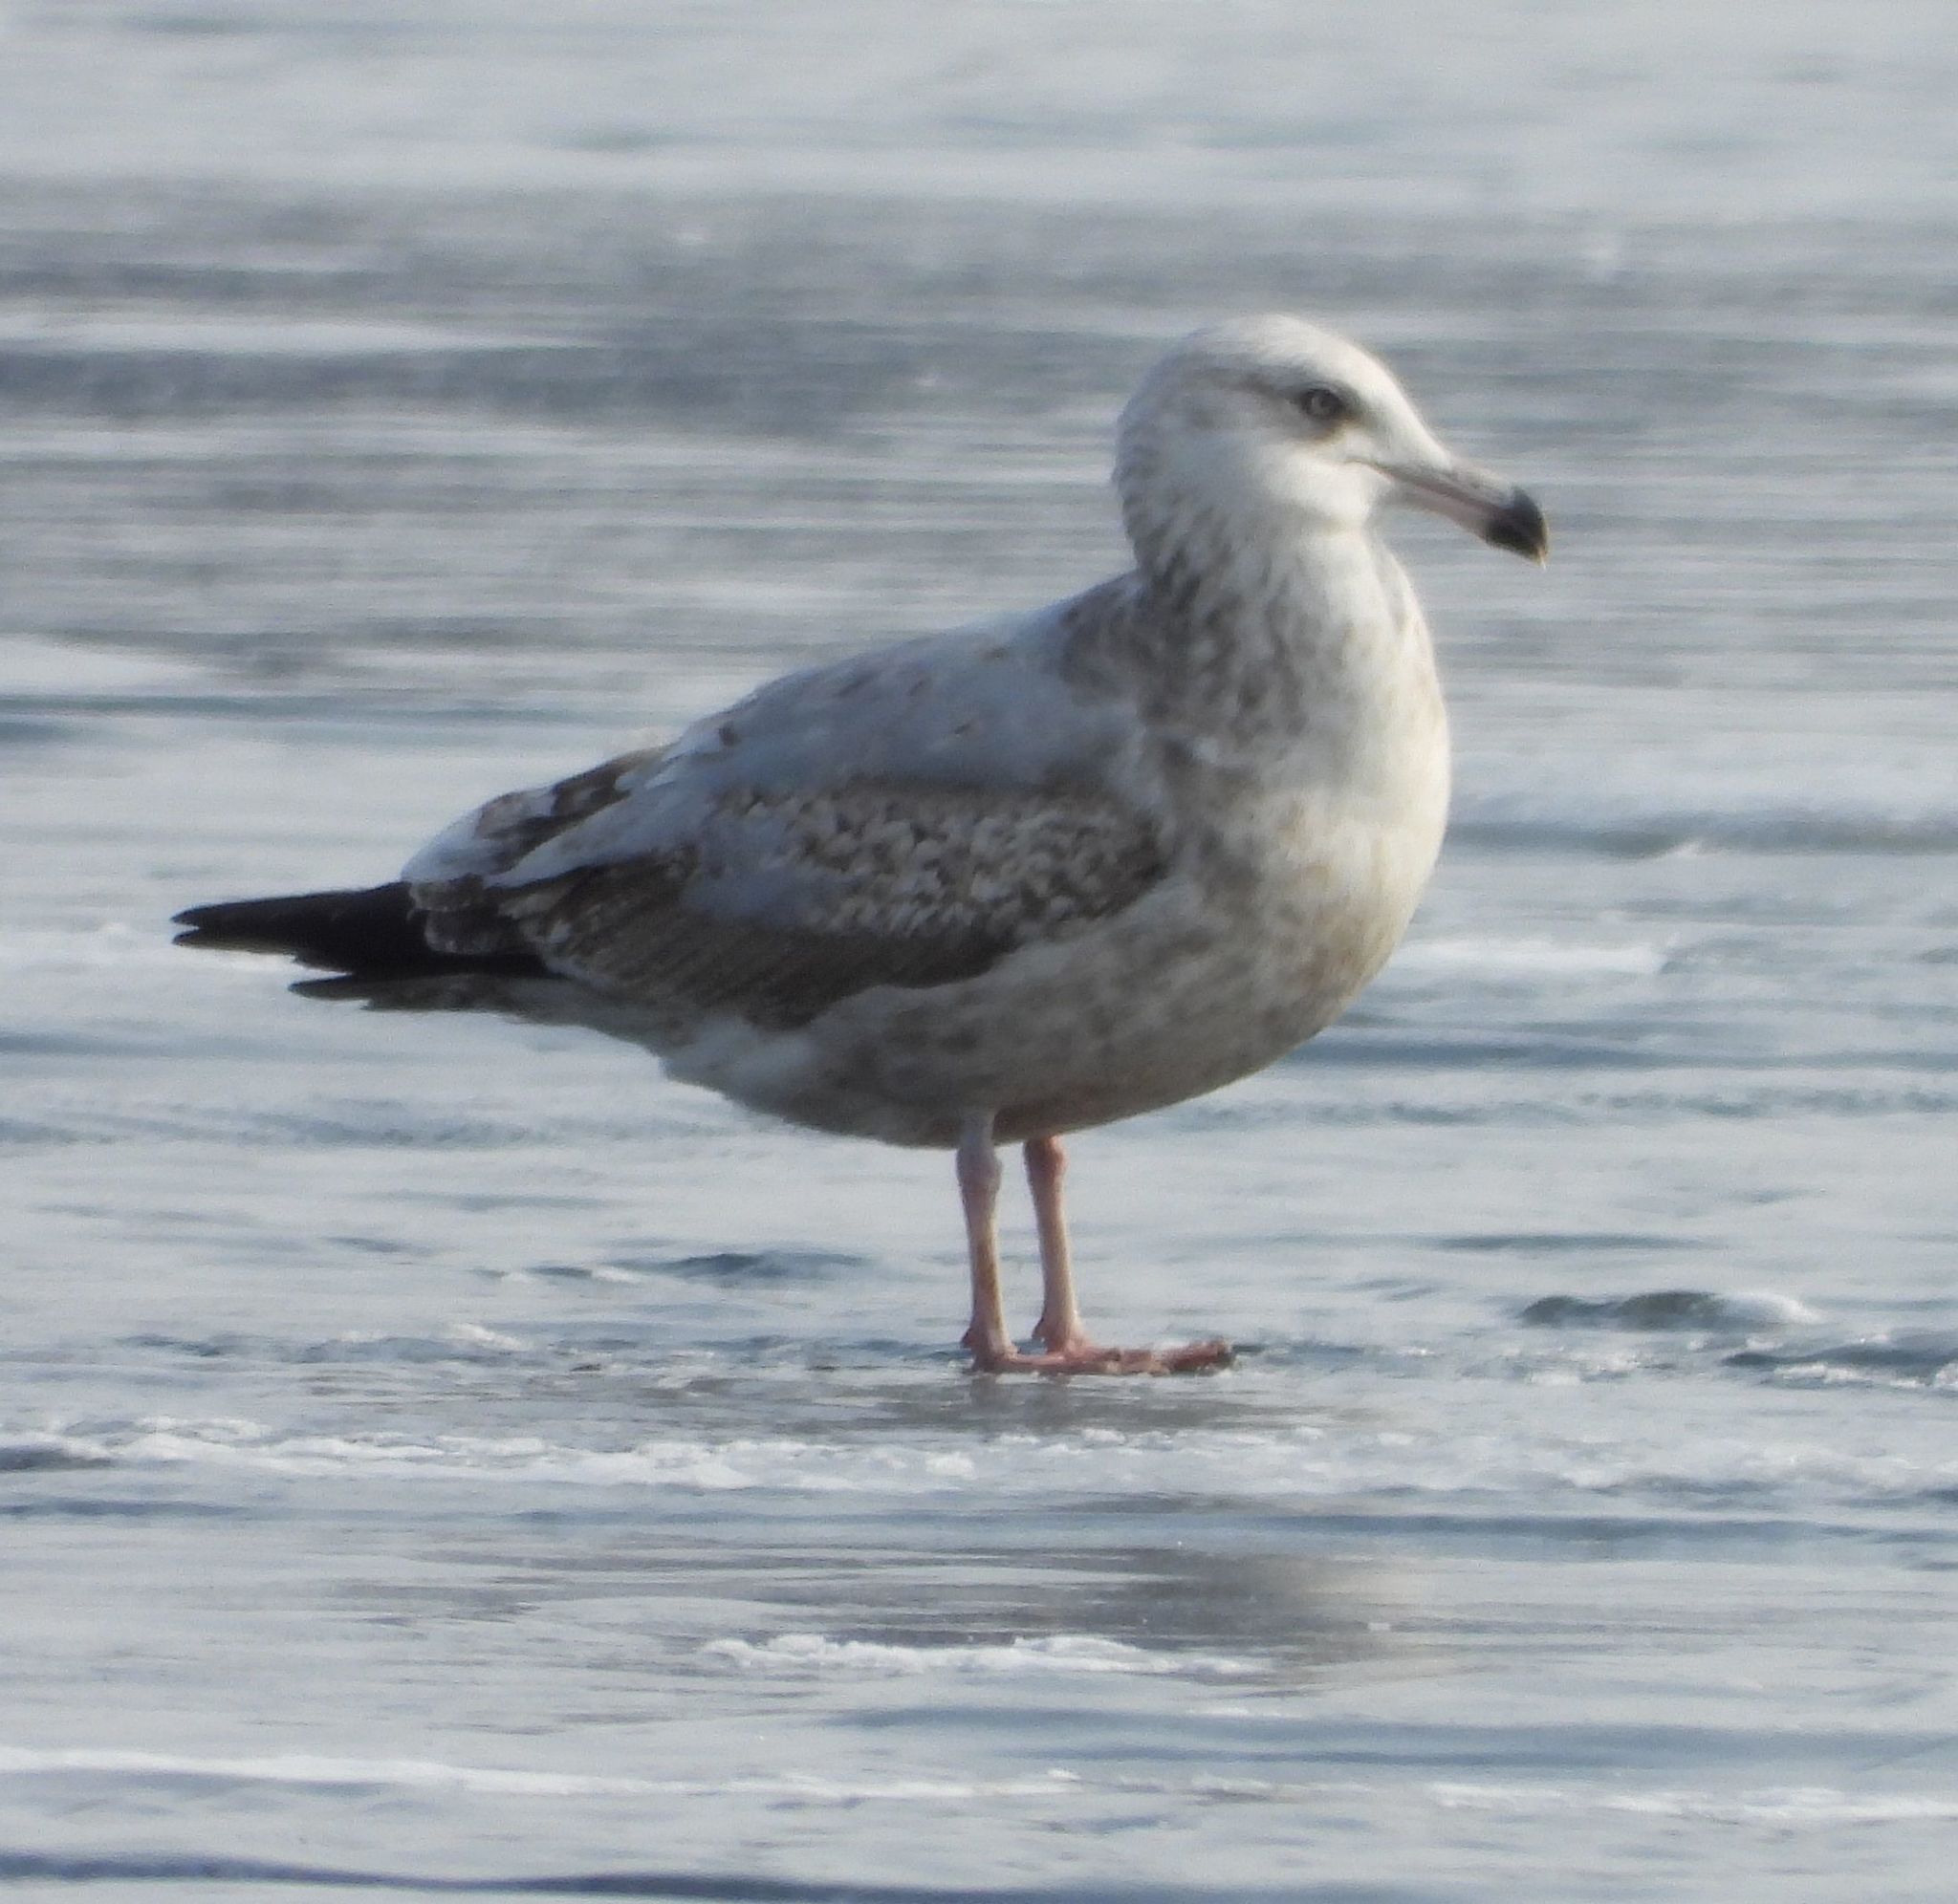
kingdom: Animalia
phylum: Chordata
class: Aves
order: Charadriiformes
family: Laridae
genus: Larus
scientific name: Larus argentatus
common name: Herring gull
